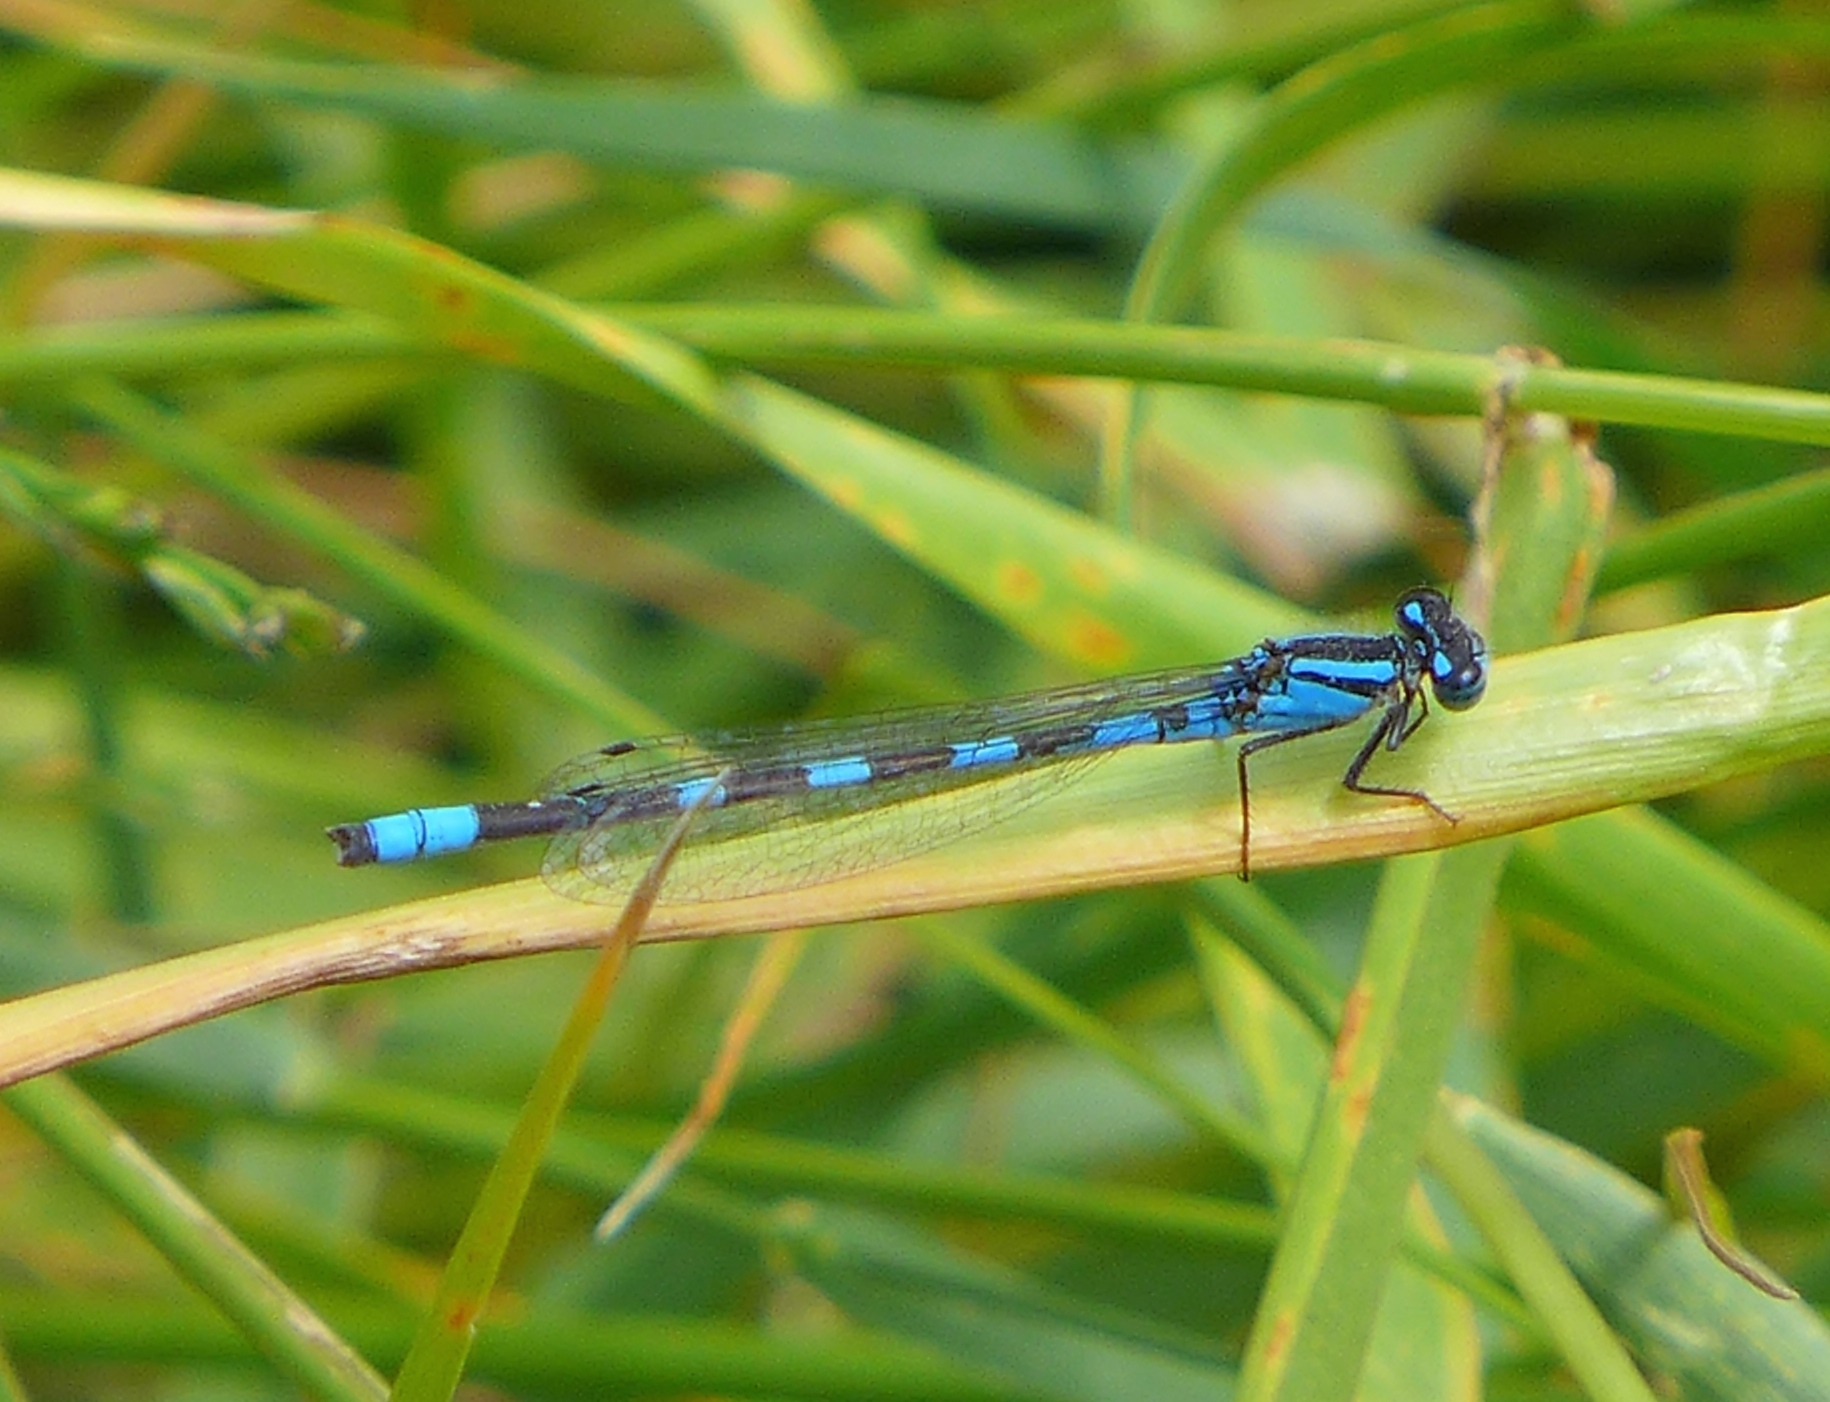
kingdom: Animalia
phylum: Arthropoda
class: Insecta
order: Odonata
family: Coenagrionidae
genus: Enallagma
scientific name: Enallagma carunculatum
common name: Tule bluet
